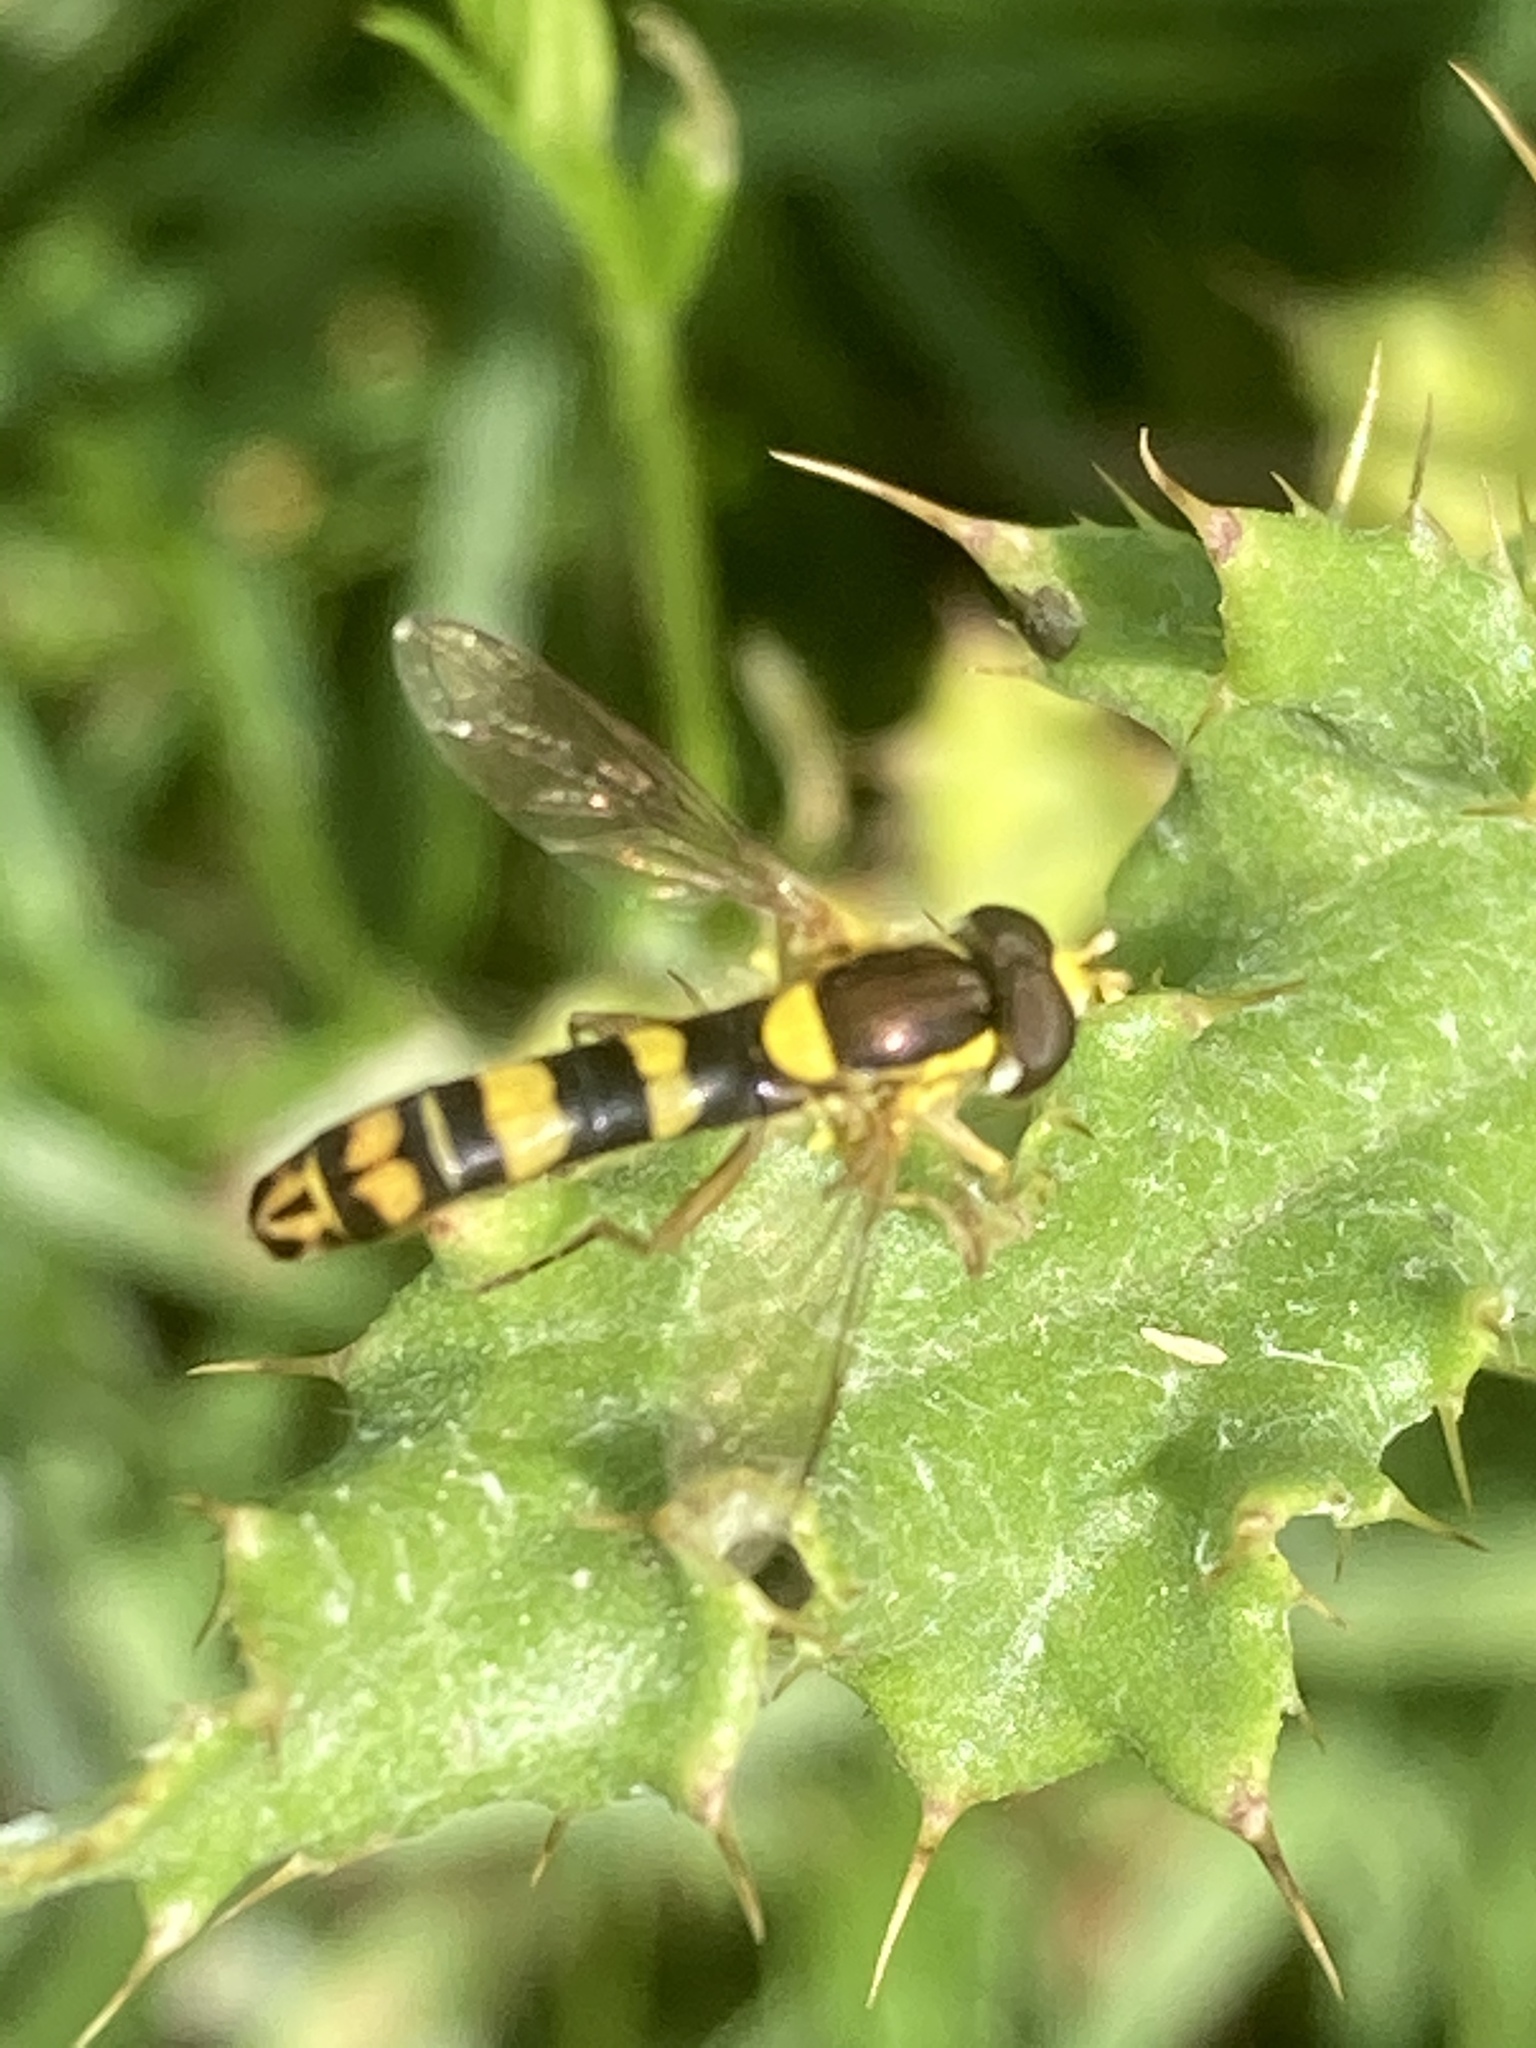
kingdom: Animalia
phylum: Arthropoda
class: Insecta
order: Diptera
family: Syrphidae
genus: Sphaerophoria
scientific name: Sphaerophoria scripta
